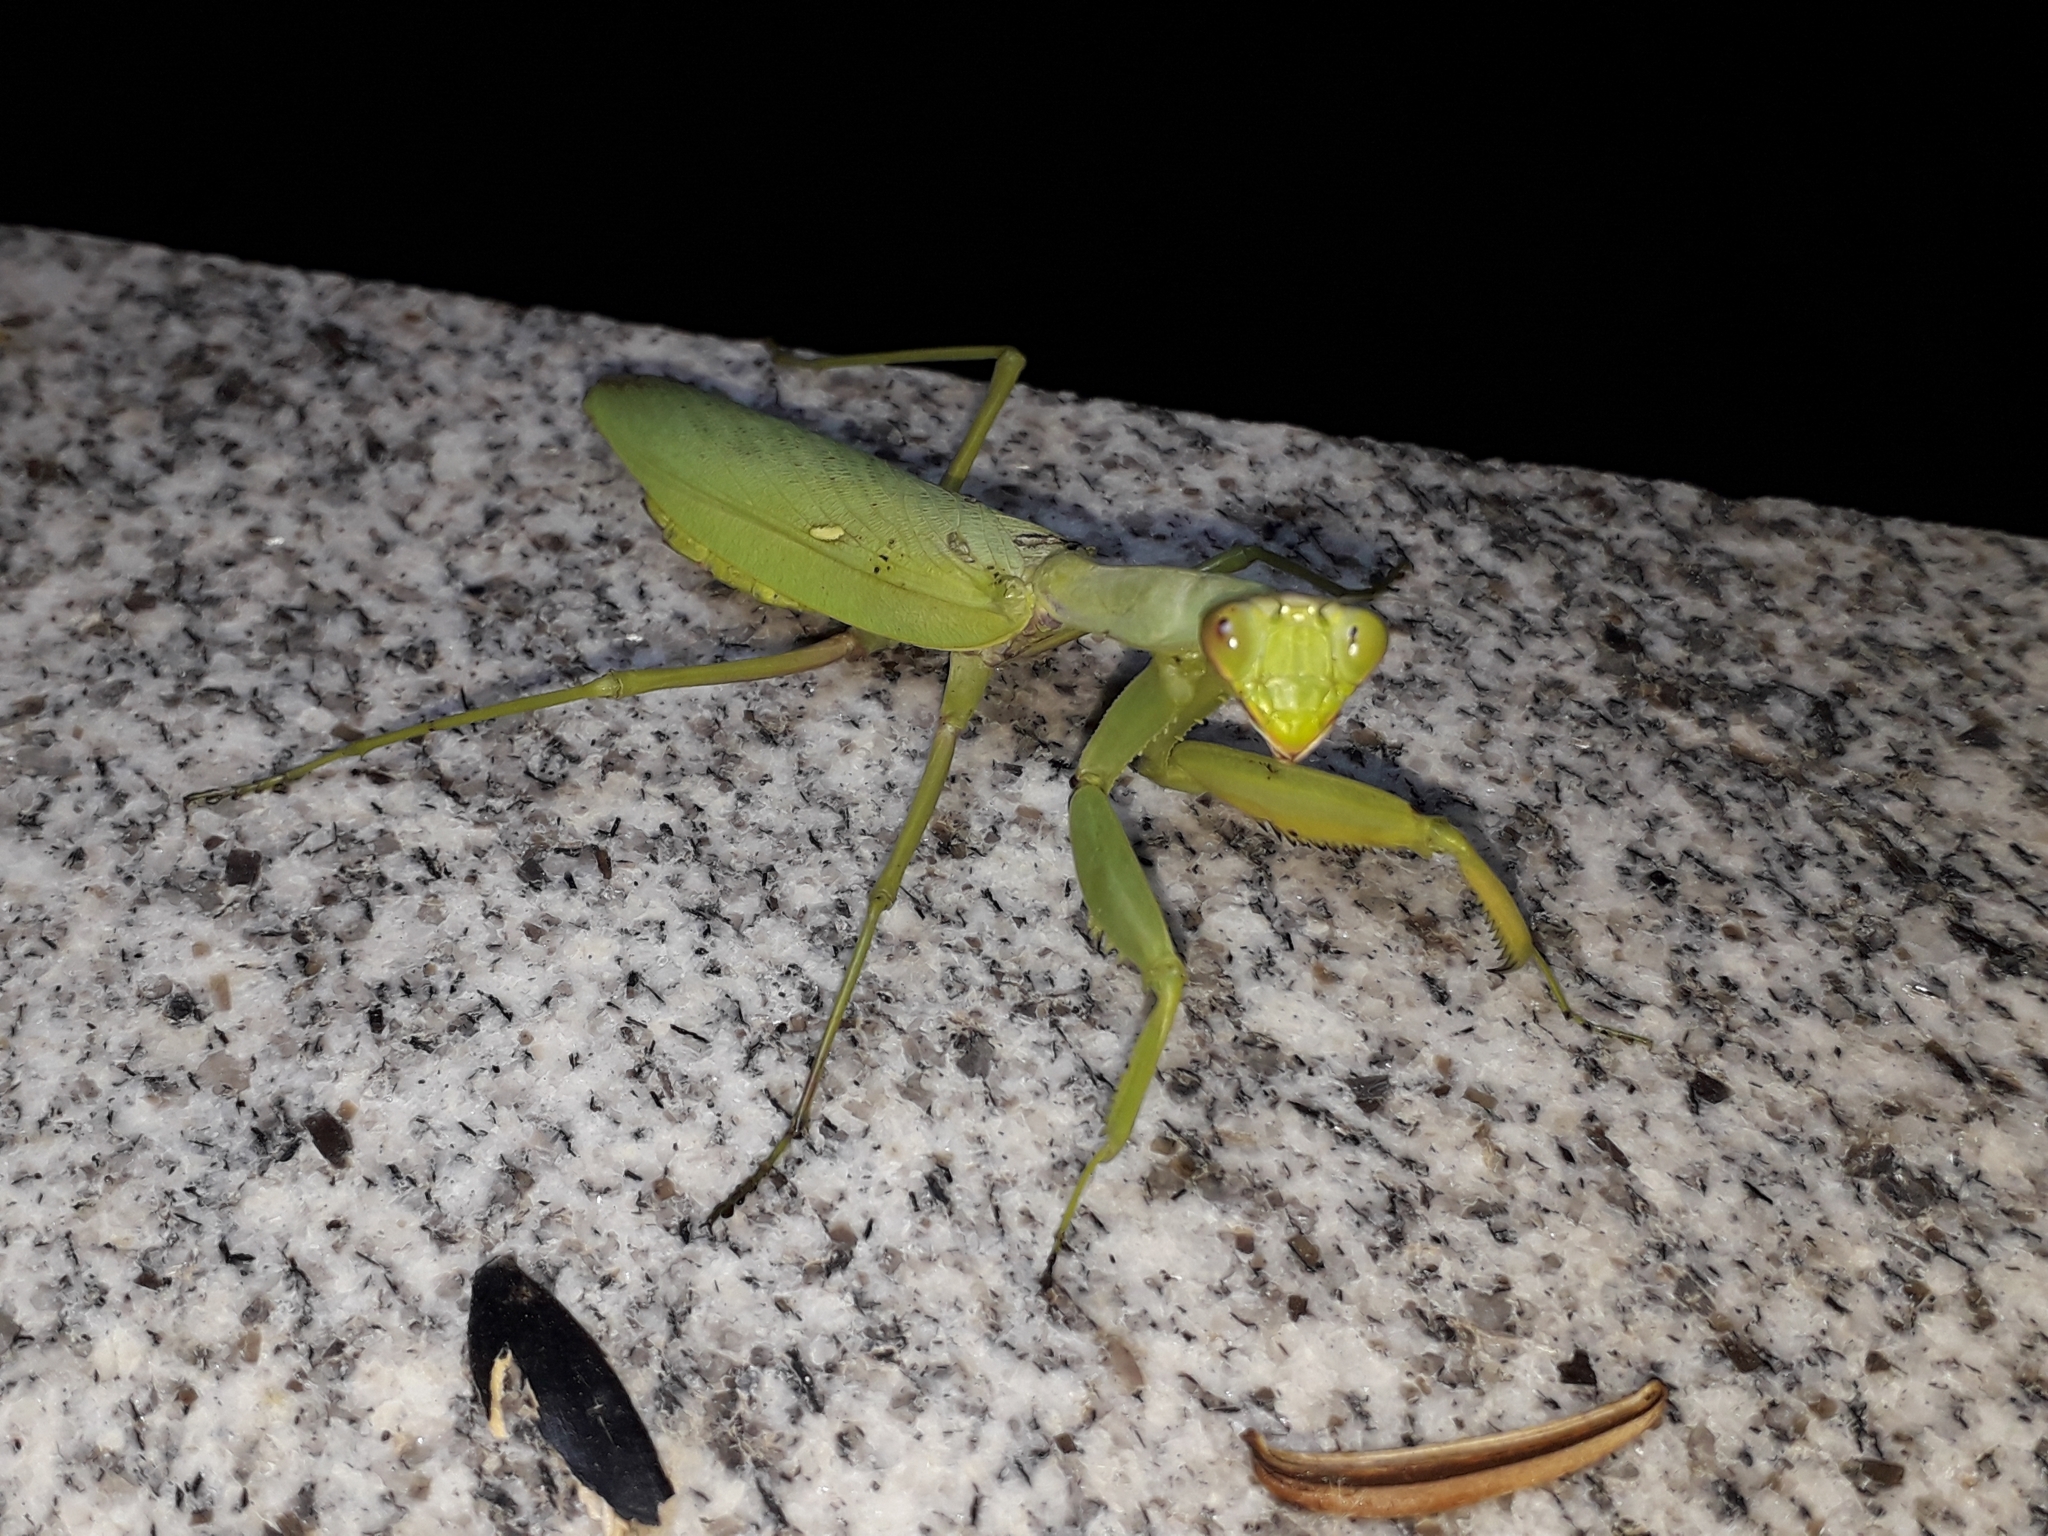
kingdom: Animalia
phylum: Arthropoda
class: Insecta
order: Mantodea
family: Mantidae
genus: Hierodula
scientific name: Hierodula transcaucasica
